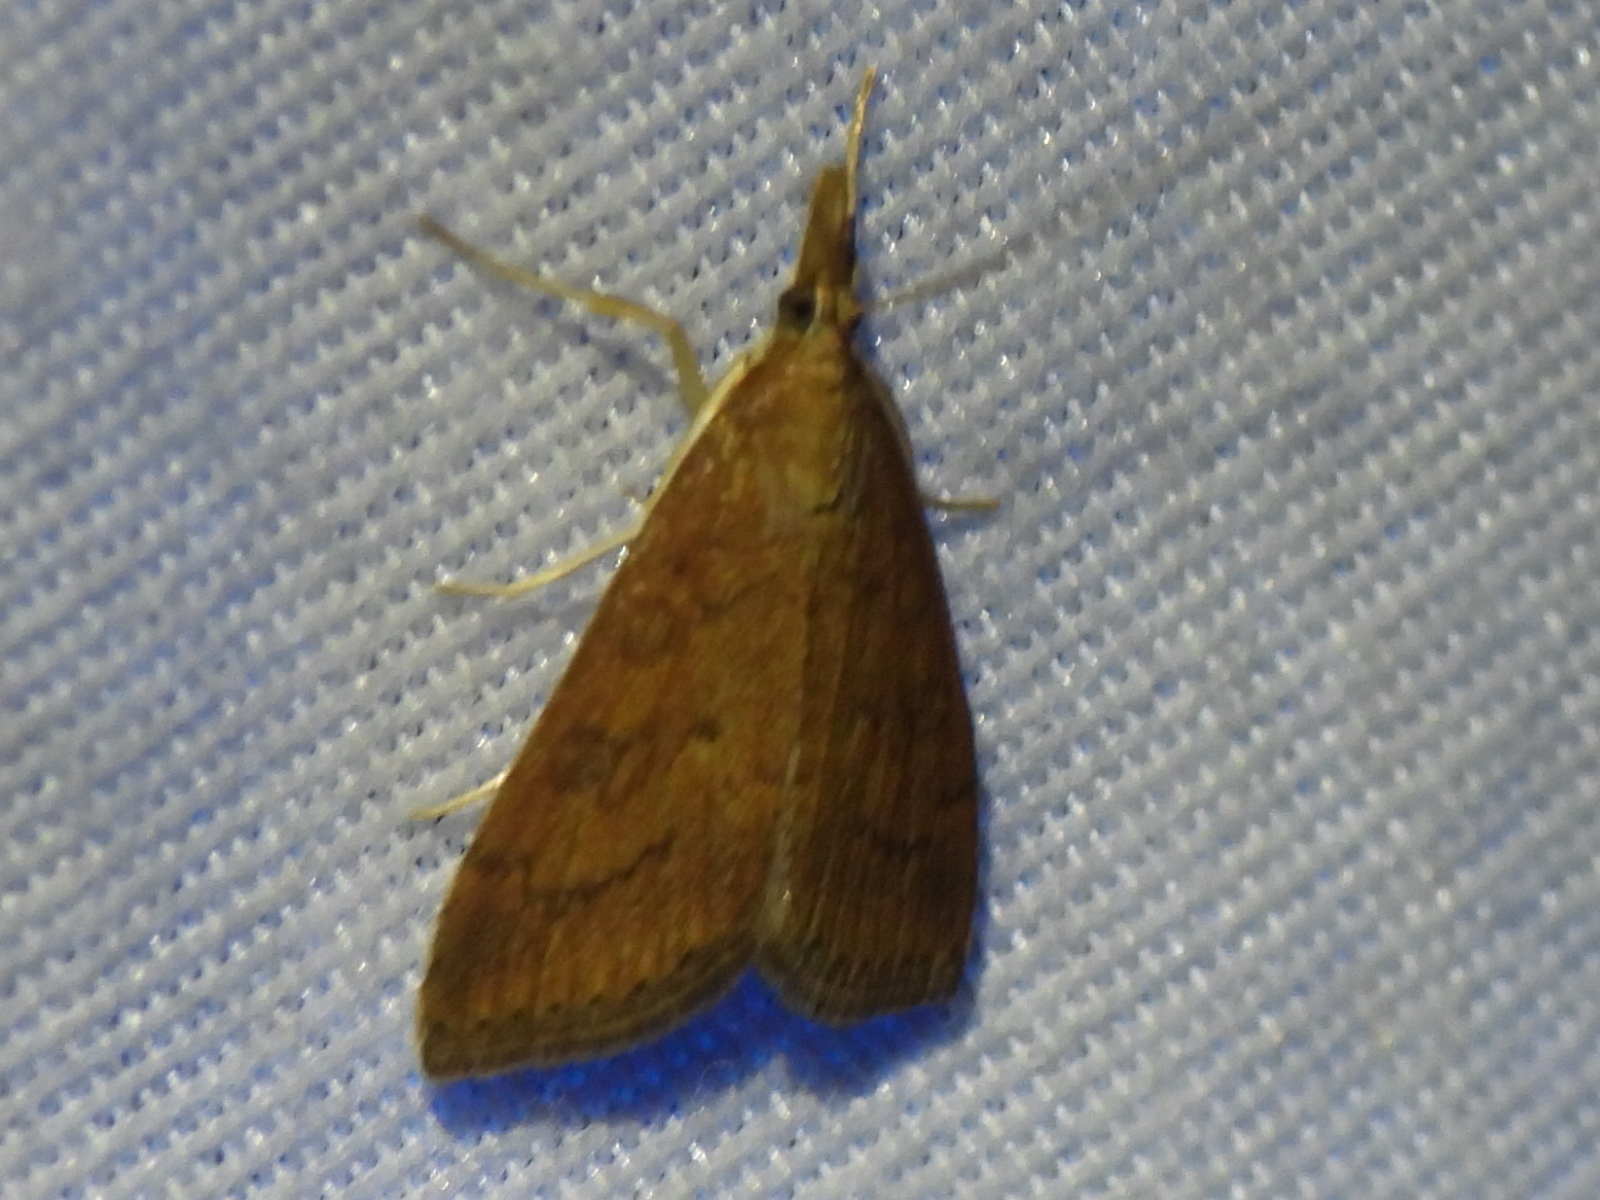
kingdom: Animalia
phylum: Arthropoda
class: Insecta
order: Lepidoptera
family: Crambidae
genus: Udea
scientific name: Udea rubigalis
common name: Celery leaftier moth
